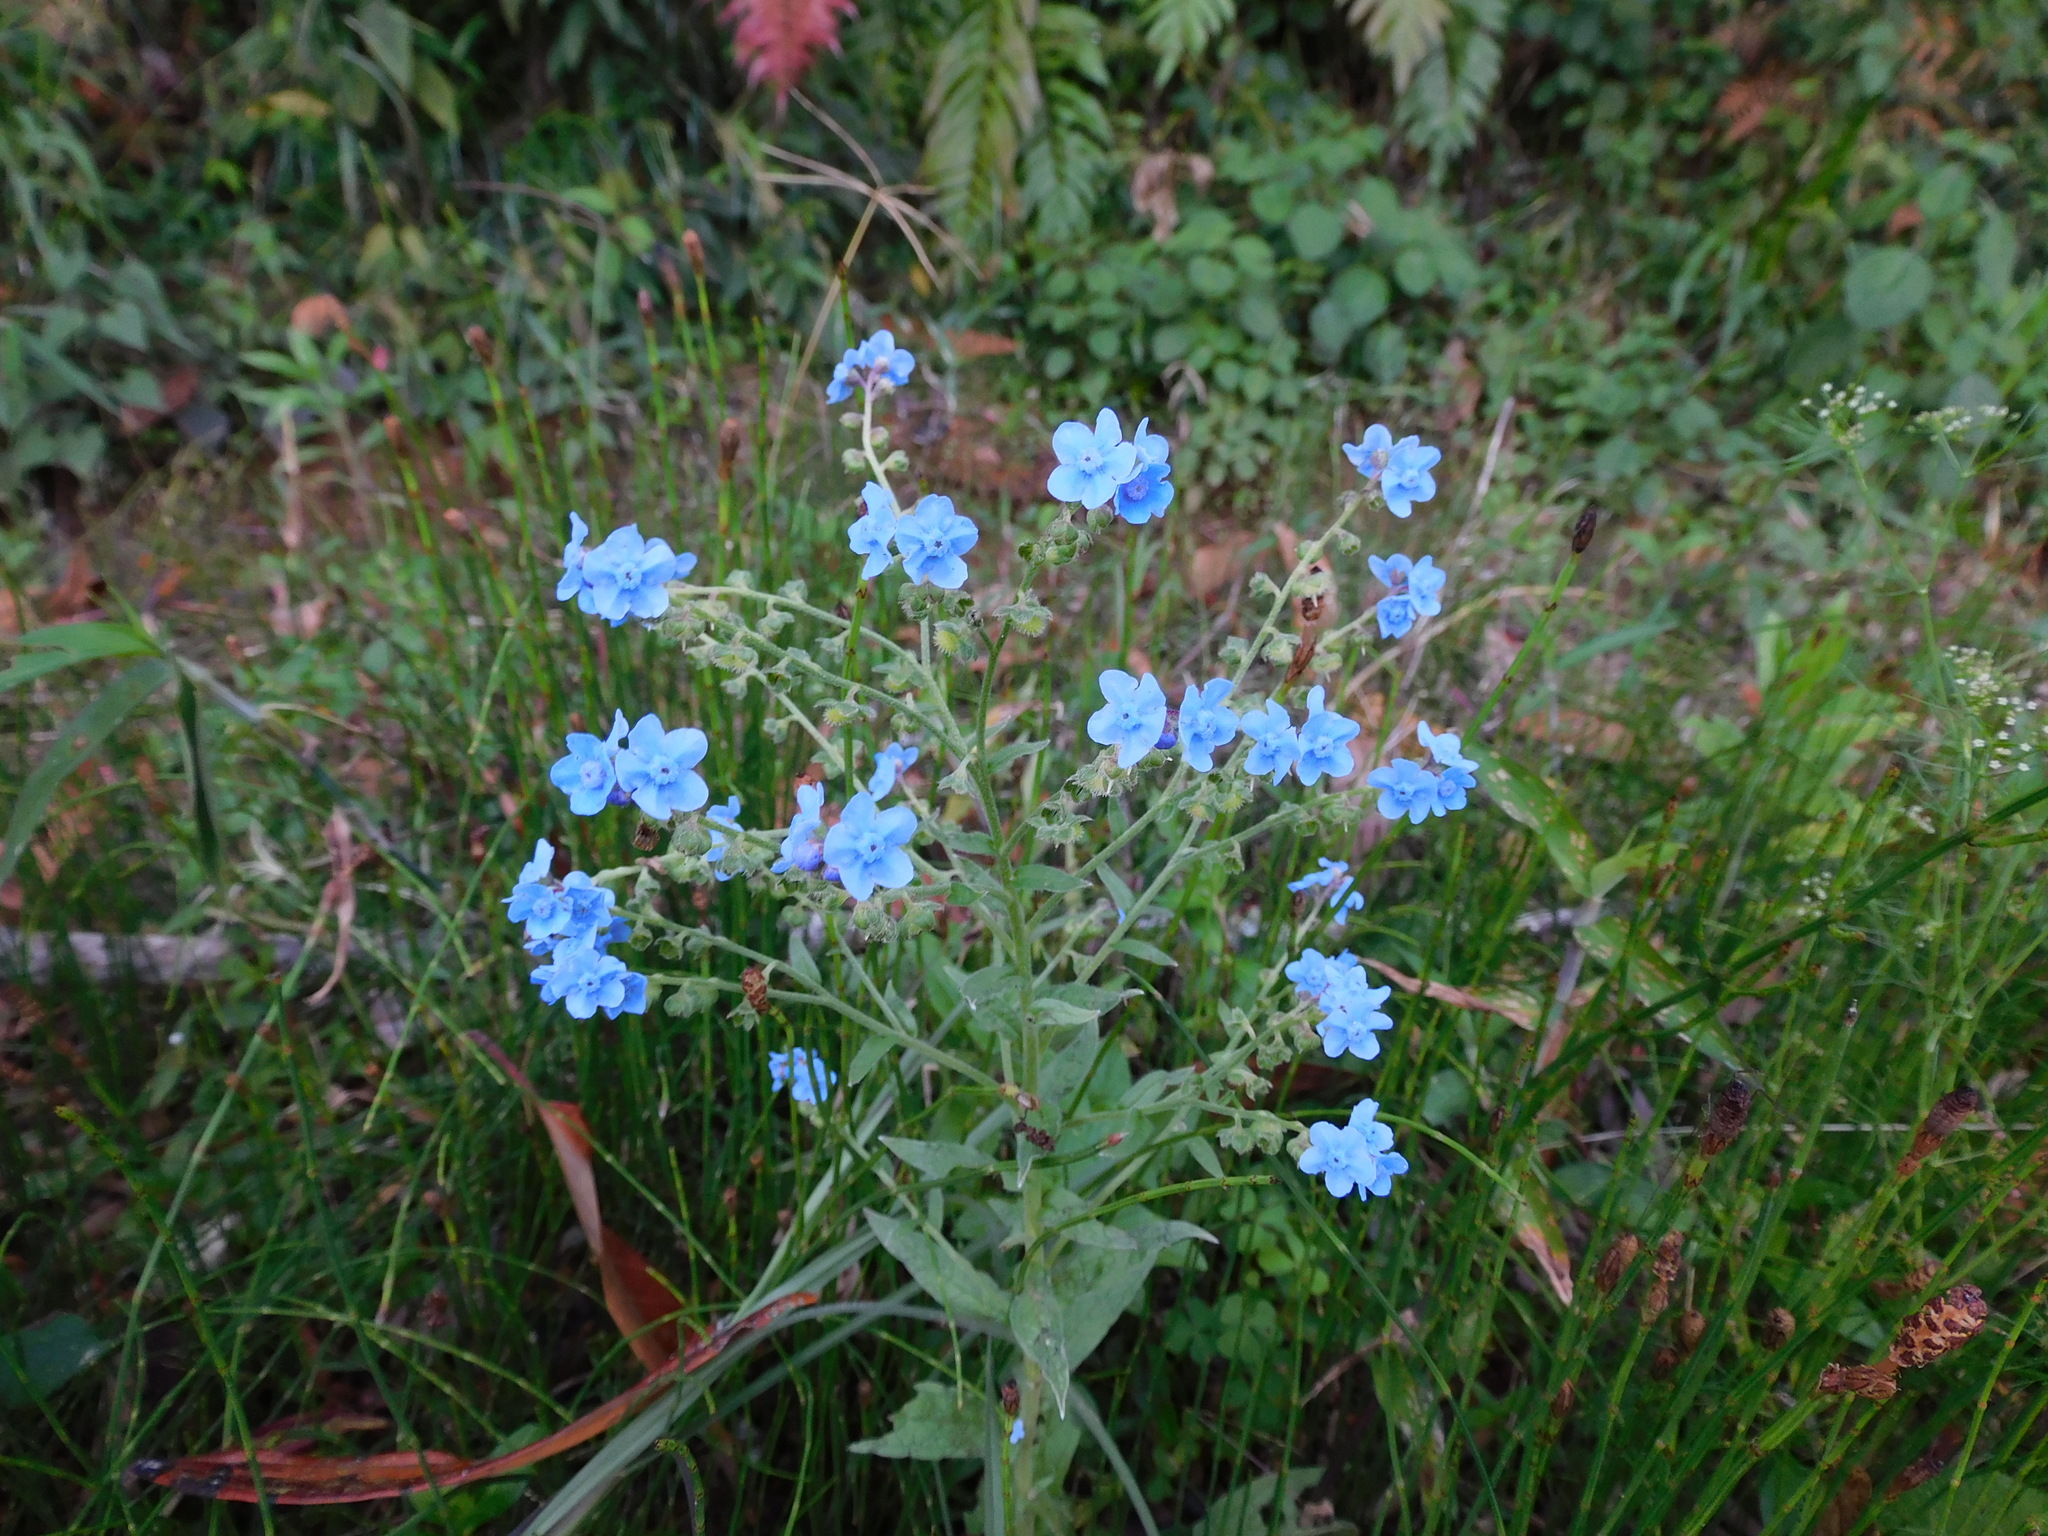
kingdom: Plantae
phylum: Tracheophyta
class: Magnoliopsida
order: Boraginales
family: Boraginaceae
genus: Cynoglossum
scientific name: Cynoglossum amabile
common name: Chinese hound's tongue
